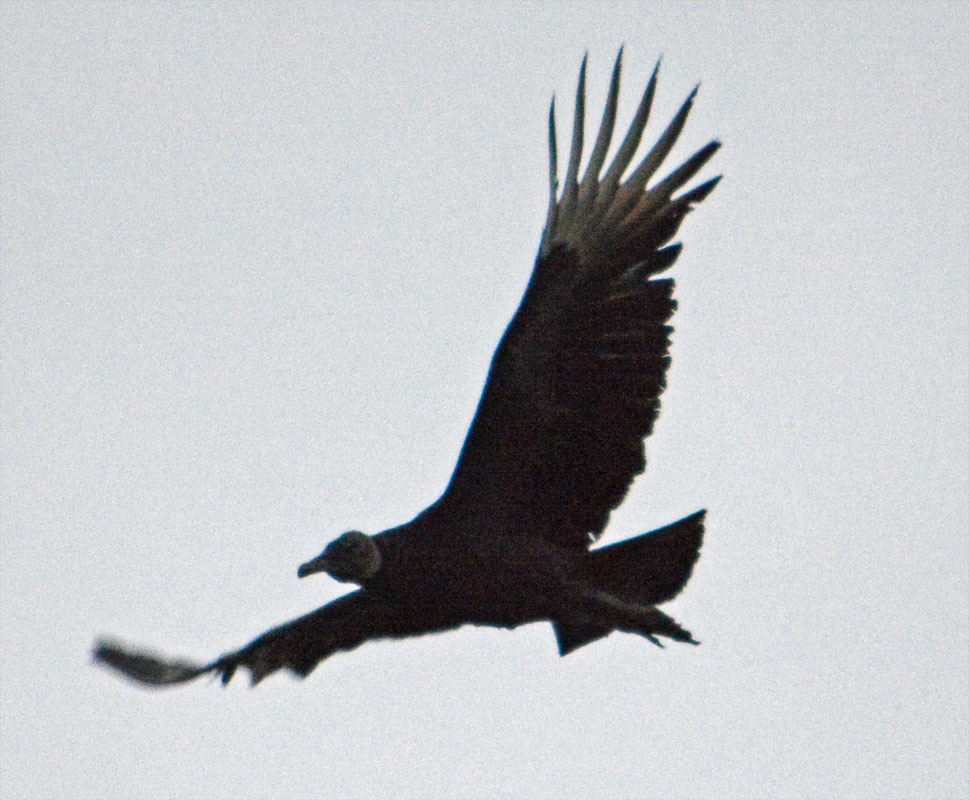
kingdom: Animalia
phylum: Chordata
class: Aves
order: Accipitriformes
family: Cathartidae
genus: Coragyps
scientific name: Coragyps atratus
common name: Black vulture
